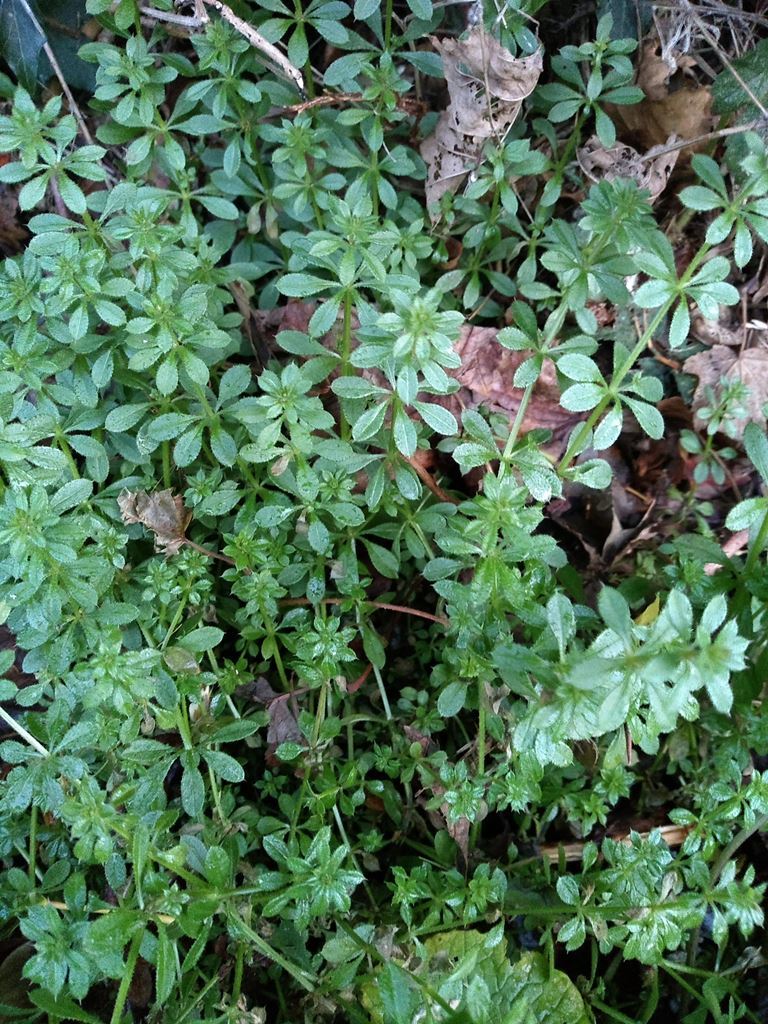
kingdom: Plantae
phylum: Tracheophyta
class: Magnoliopsida
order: Gentianales
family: Rubiaceae
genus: Galium
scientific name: Galium aparine
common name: Cleavers
